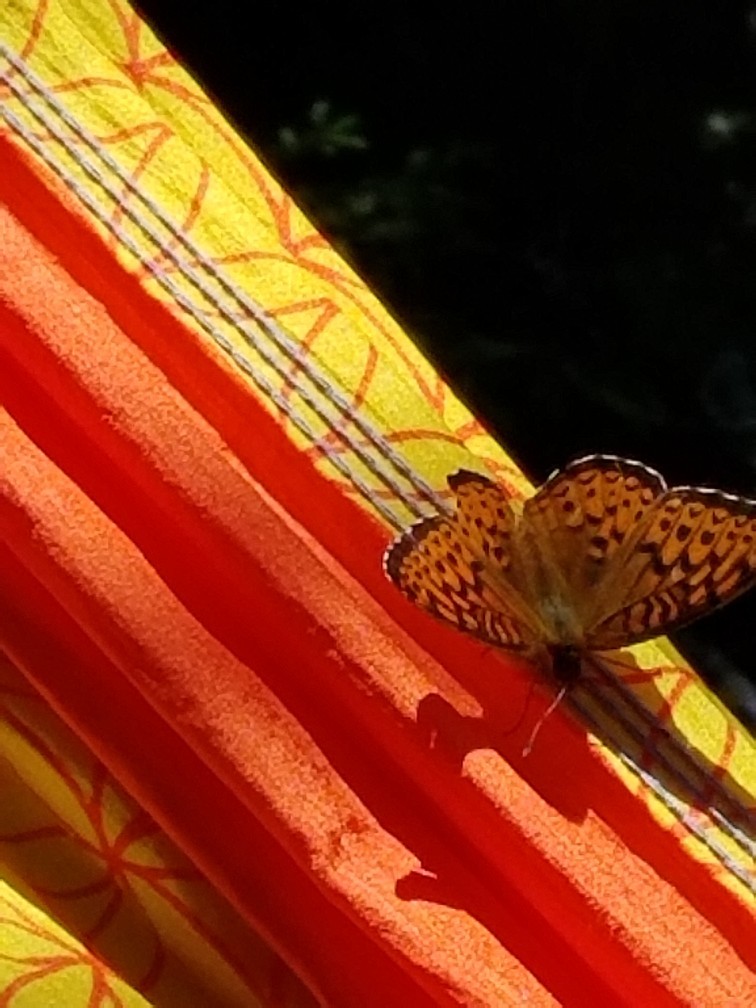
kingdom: Animalia
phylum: Arthropoda
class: Insecta
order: Lepidoptera
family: Nymphalidae
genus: Speyeria
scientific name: Speyeria atlantis
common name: Atlantis fritillary
